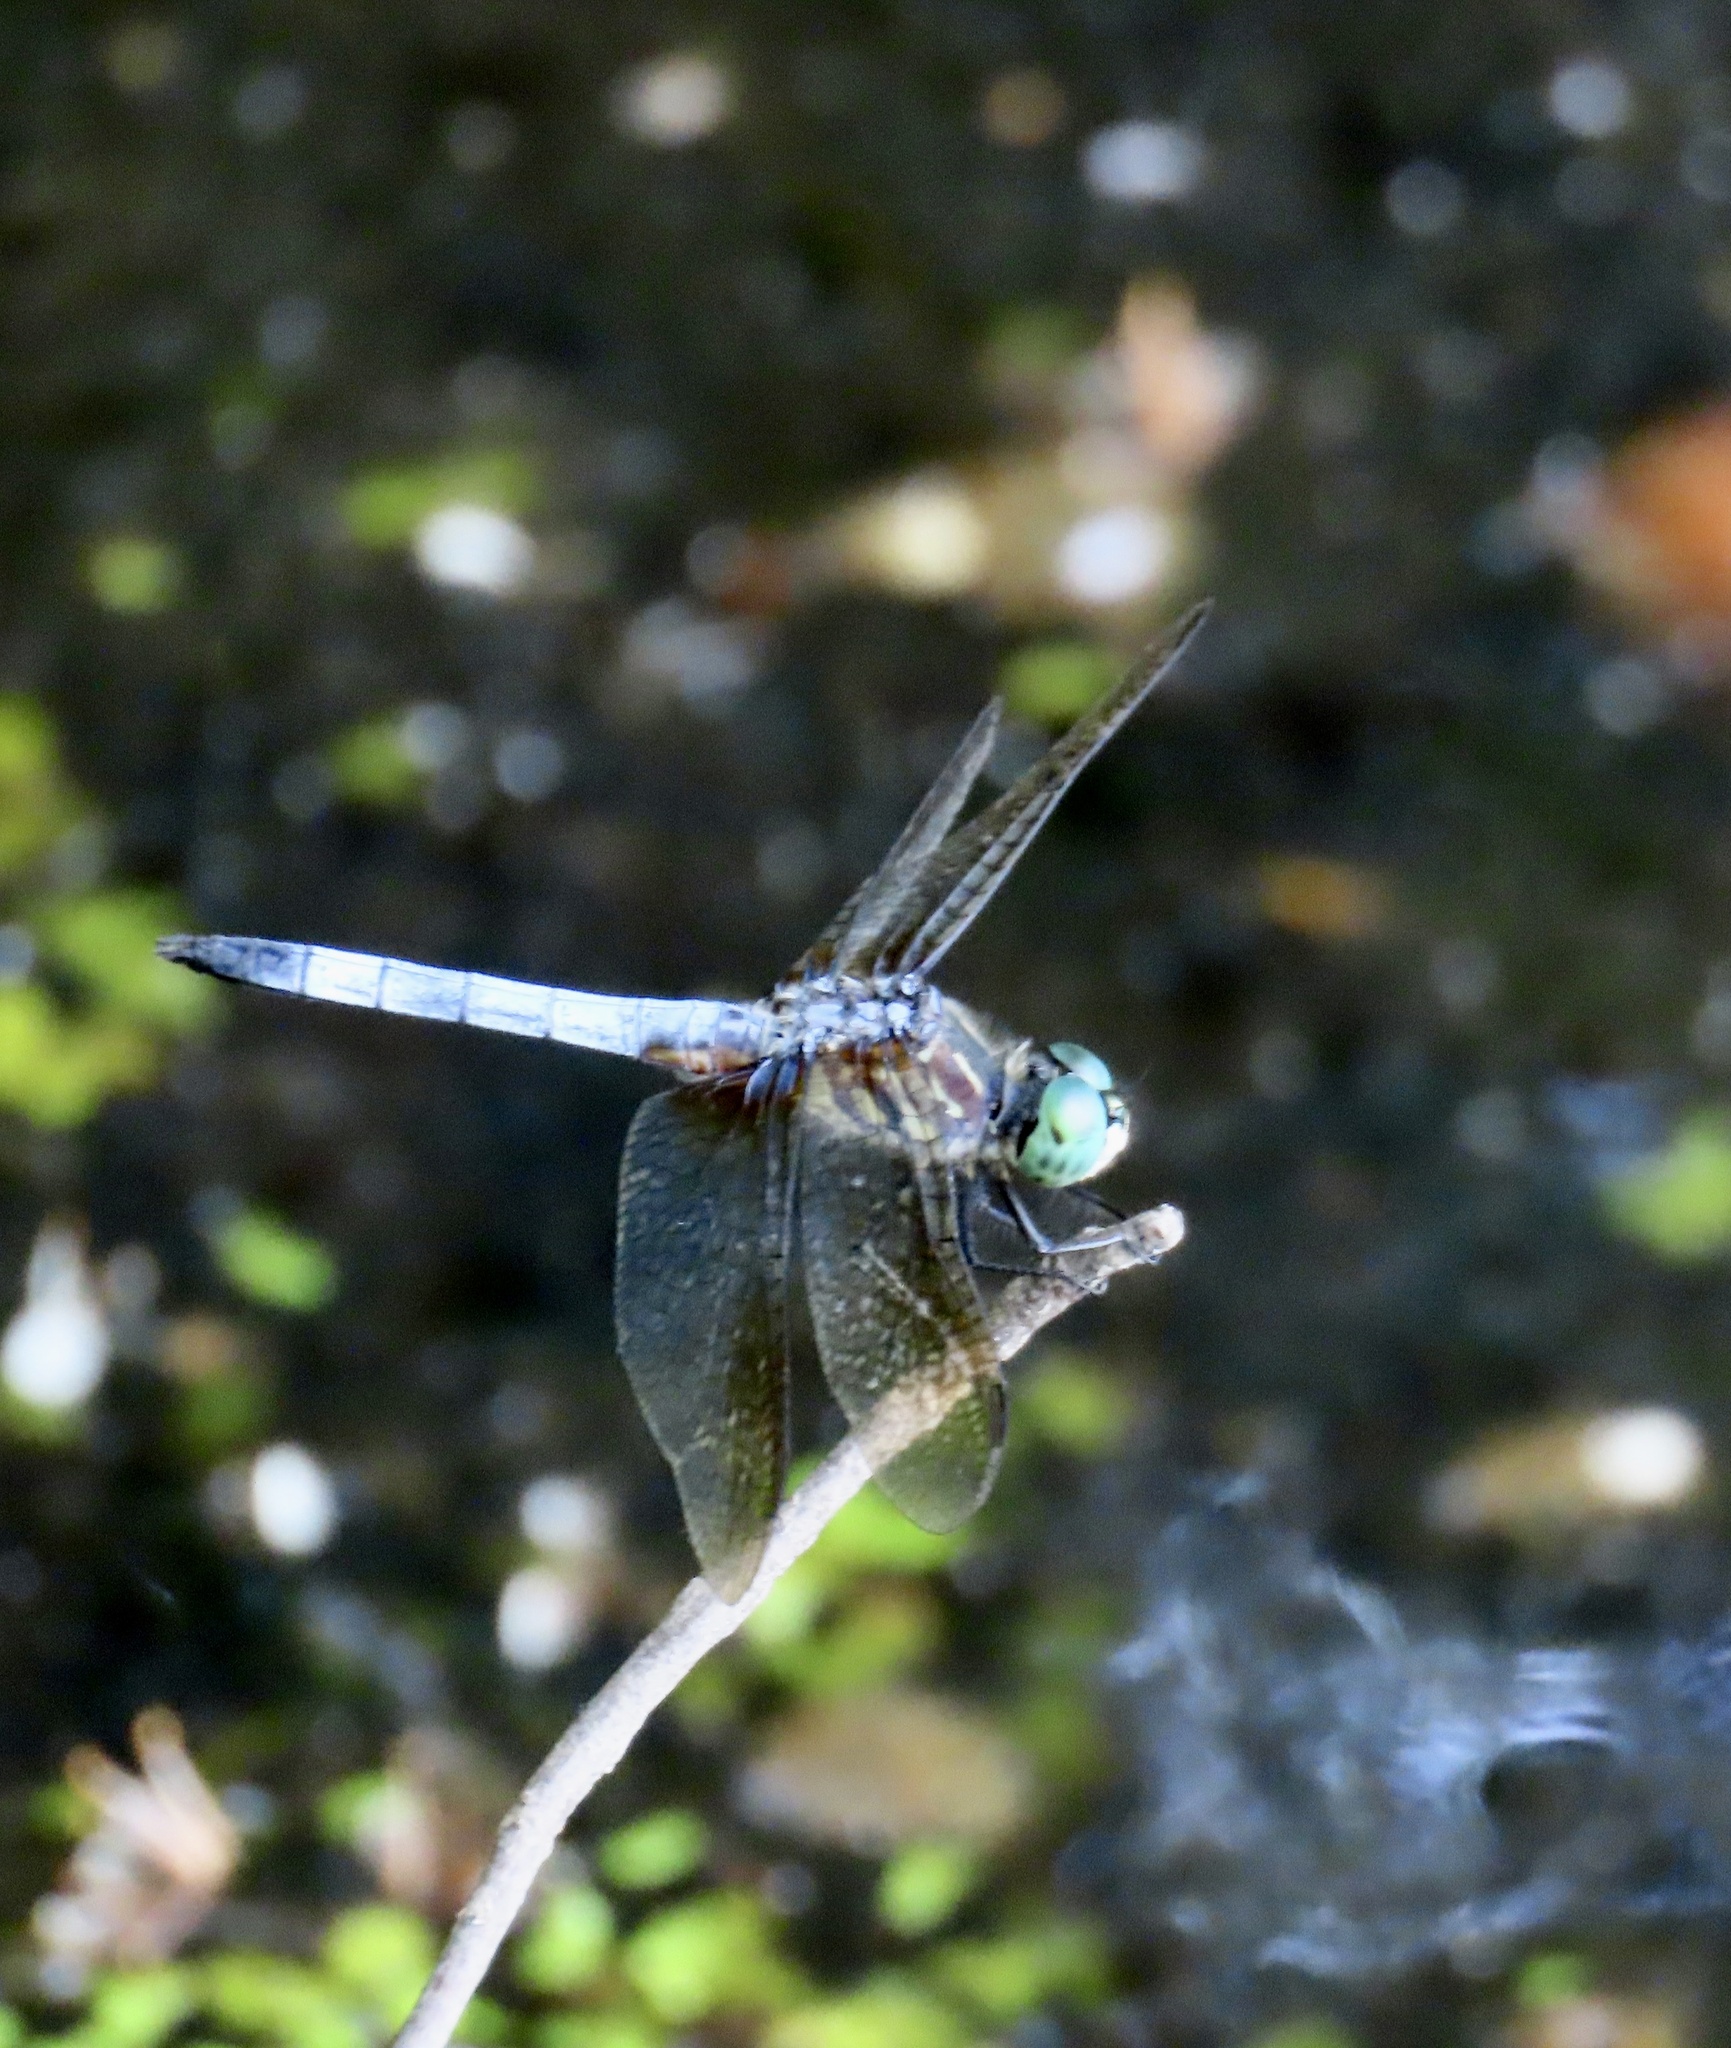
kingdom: Animalia
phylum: Arthropoda
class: Insecta
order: Odonata
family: Libellulidae
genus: Pachydiplax
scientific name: Pachydiplax longipennis
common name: Blue dasher
